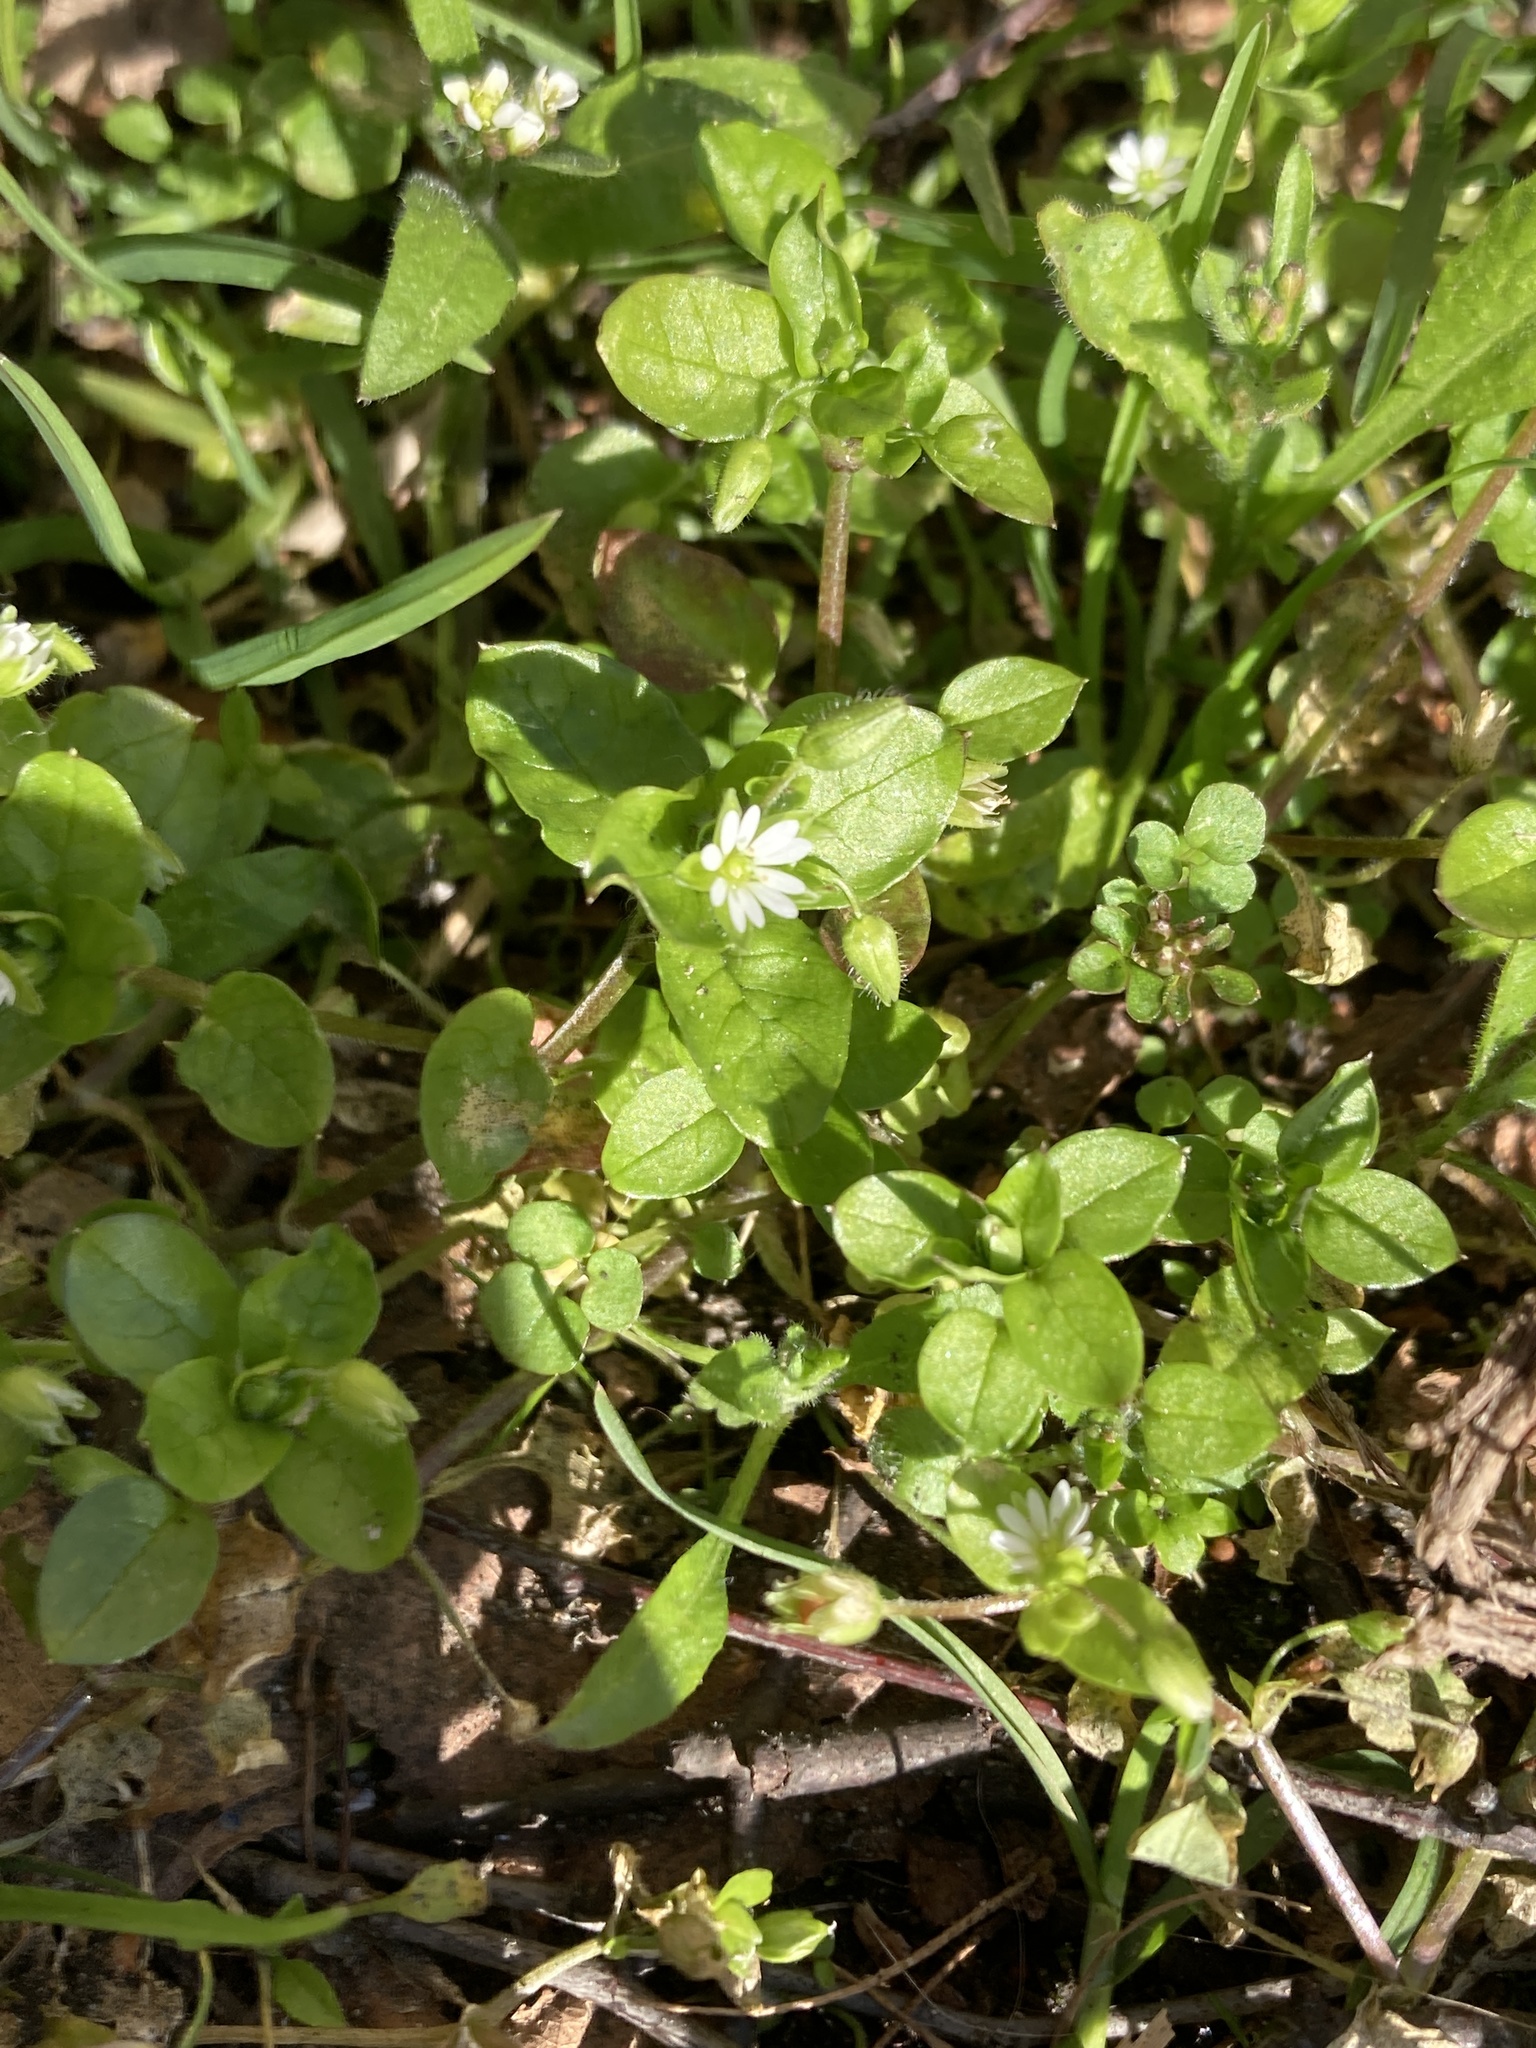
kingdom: Plantae
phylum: Tracheophyta
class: Magnoliopsida
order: Caryophyllales
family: Caryophyllaceae
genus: Stellaria
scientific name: Stellaria media
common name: Common chickweed
